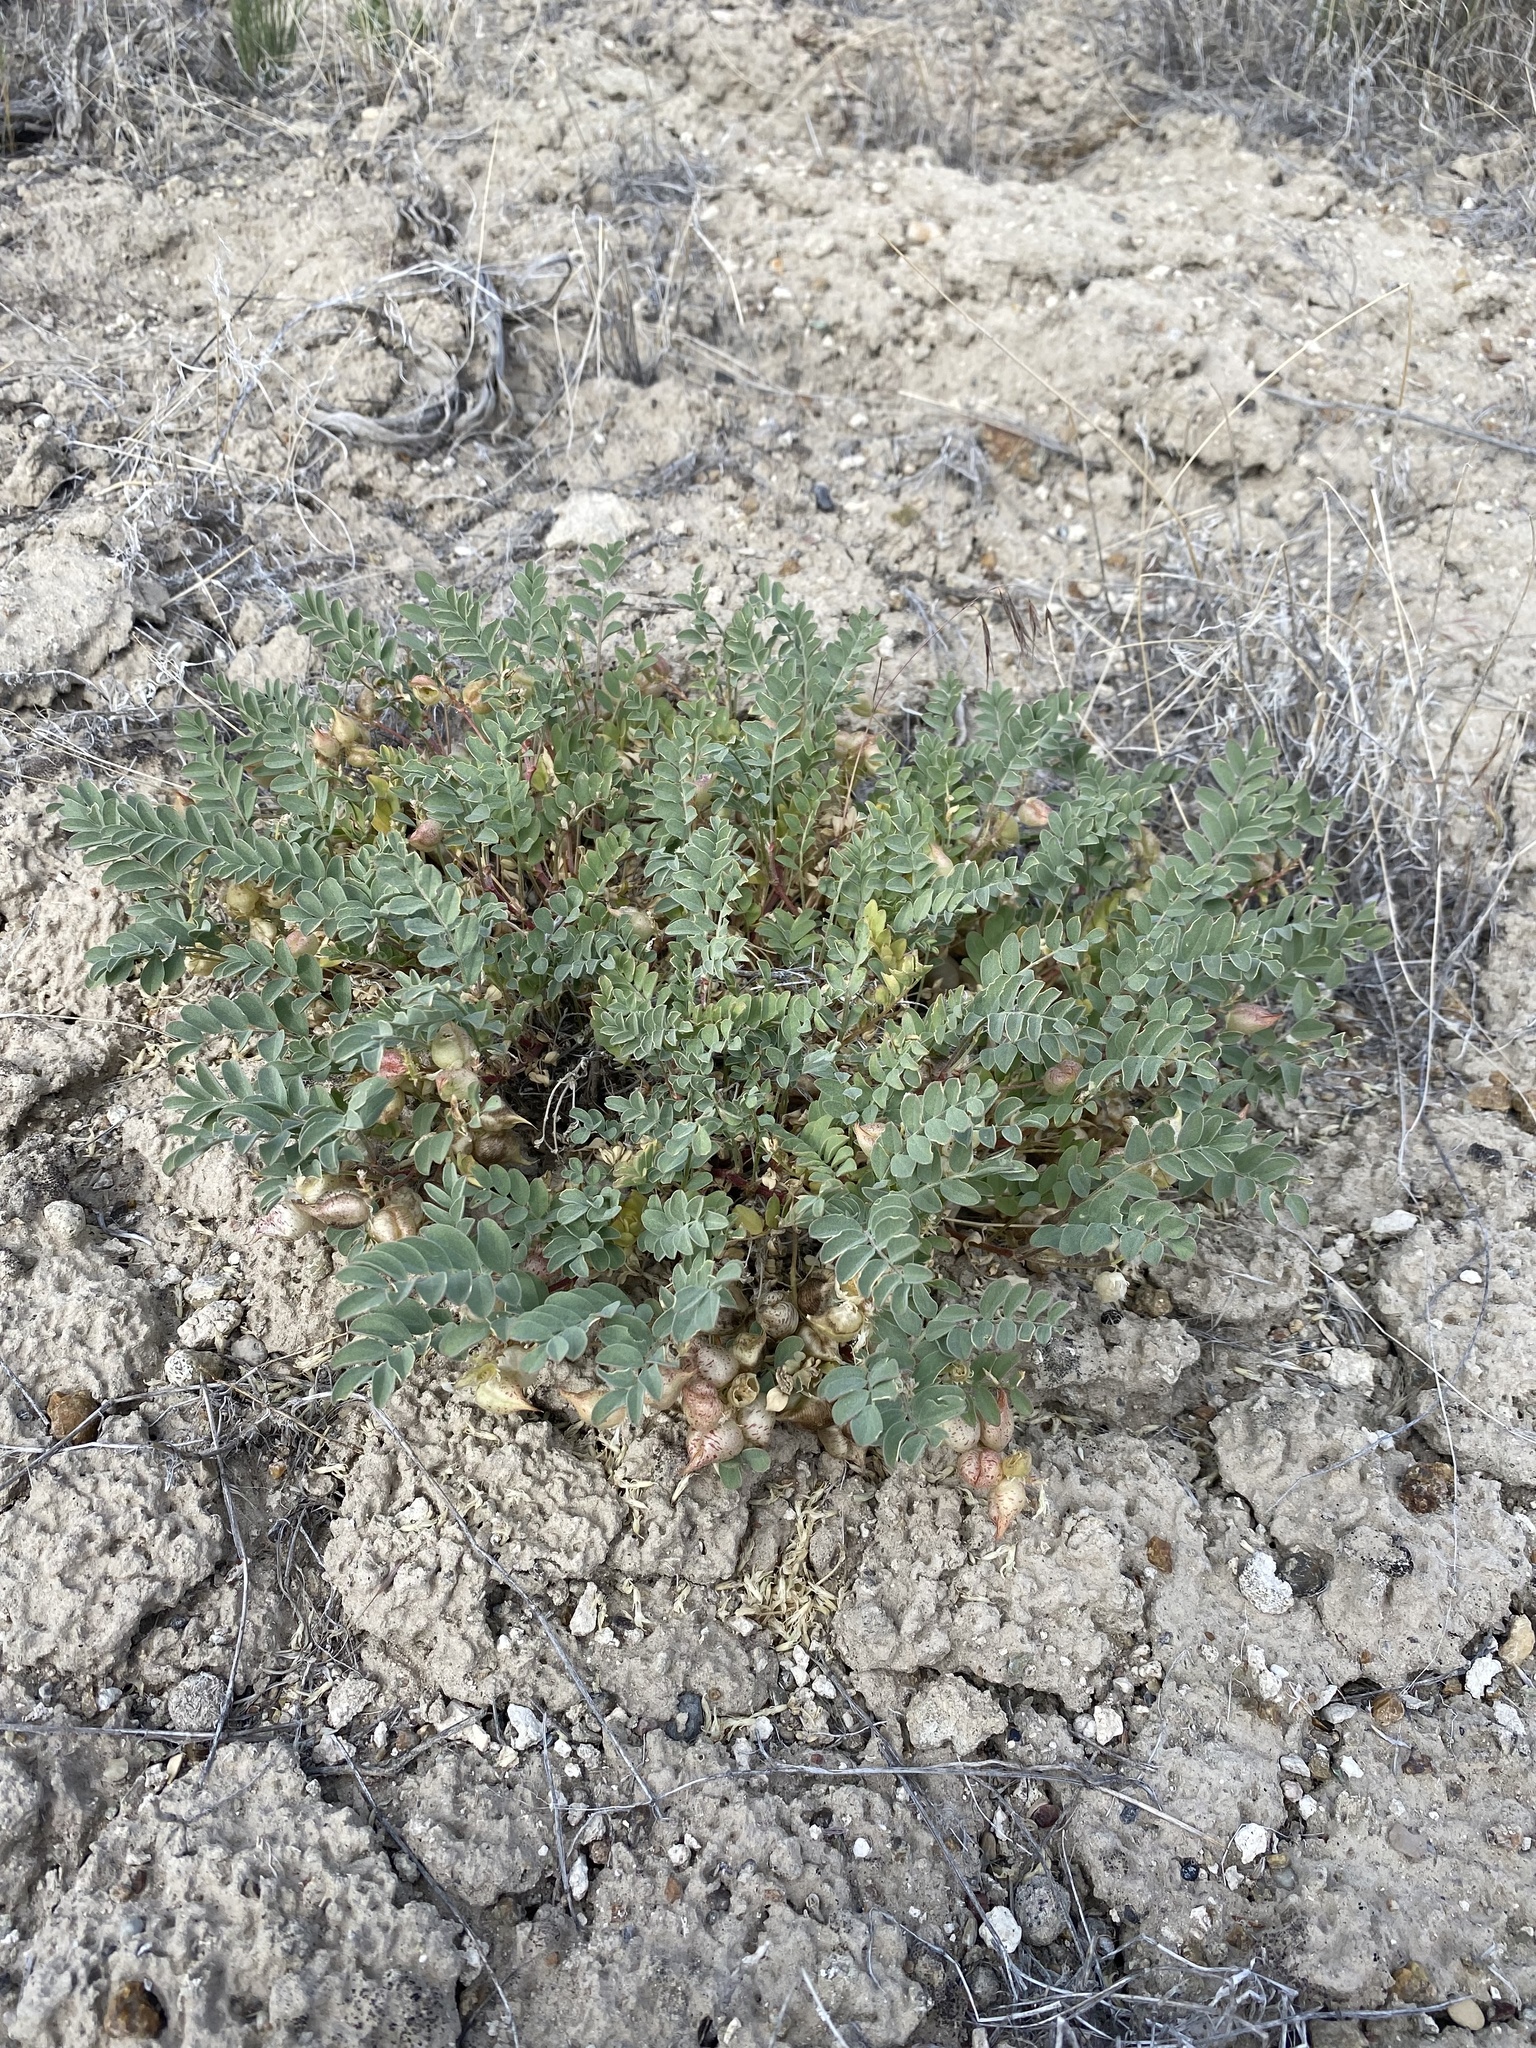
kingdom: Plantae
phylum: Tracheophyta
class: Magnoliopsida
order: Fabales
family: Fabaceae
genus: Astragalus
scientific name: Astragalus lentiginosus
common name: Freckled milkvetch
